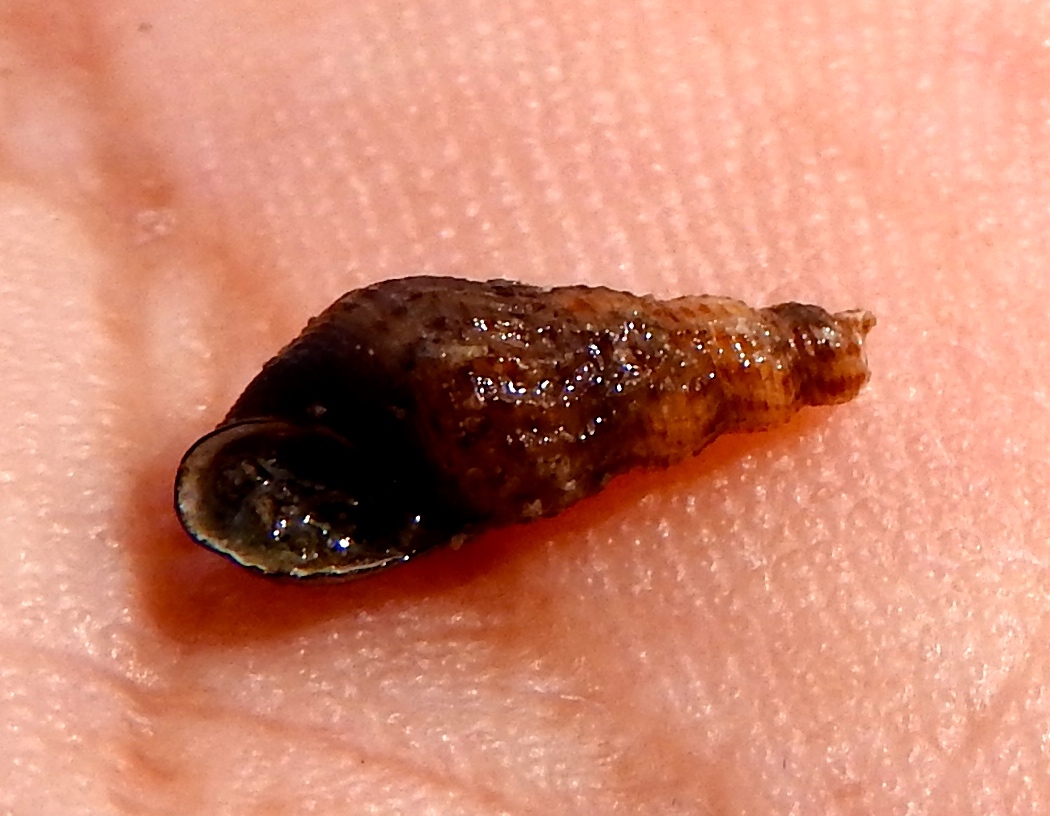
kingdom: Animalia
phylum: Mollusca
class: Gastropoda
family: Thiaridae
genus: Melanoides
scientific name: Melanoides tuberculata
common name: Red-rim melania
